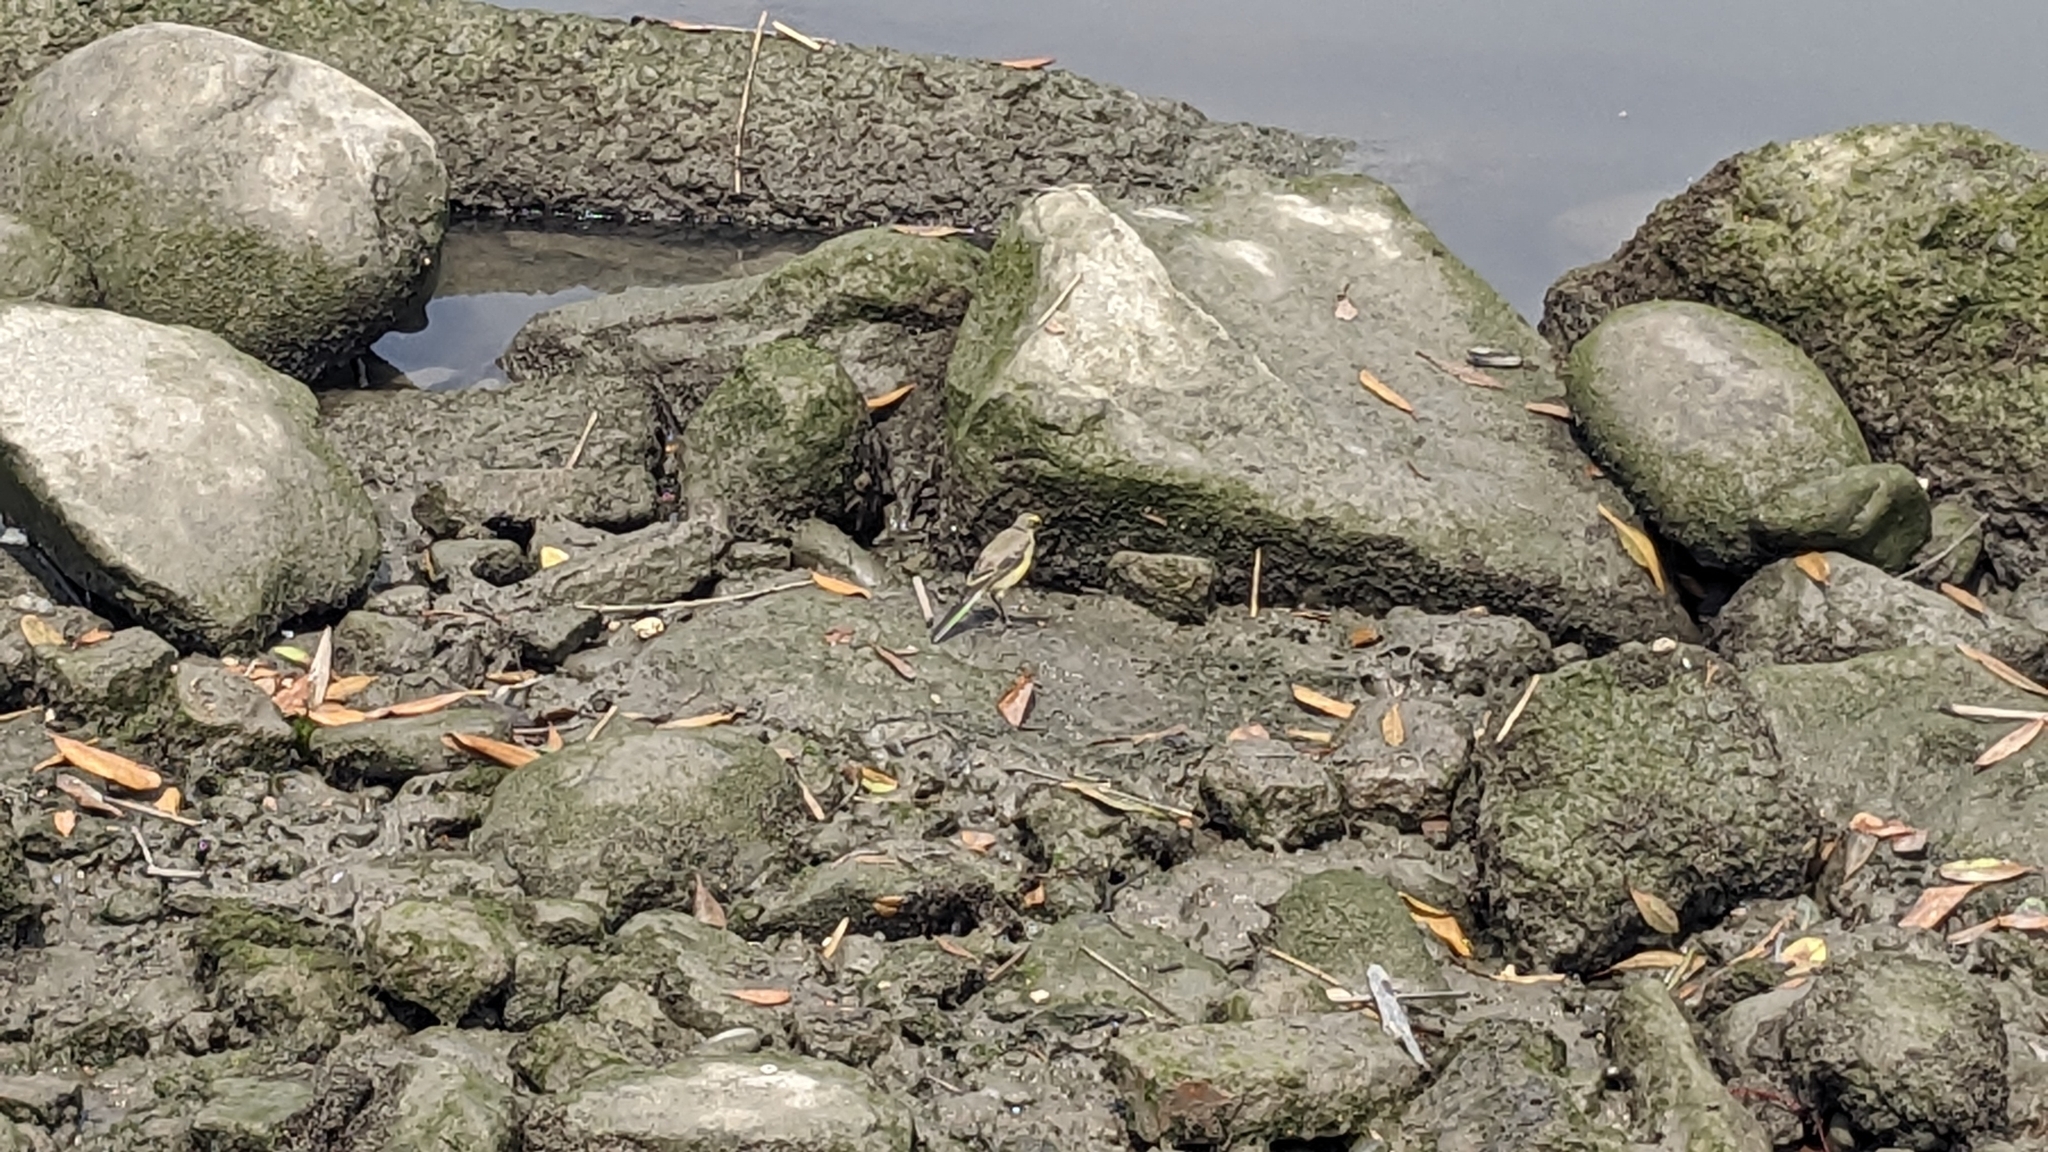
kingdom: Animalia
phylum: Chordata
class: Aves
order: Passeriformes
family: Motacillidae
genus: Motacilla
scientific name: Motacilla tschutschensis
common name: Eastern yellow wagtail
